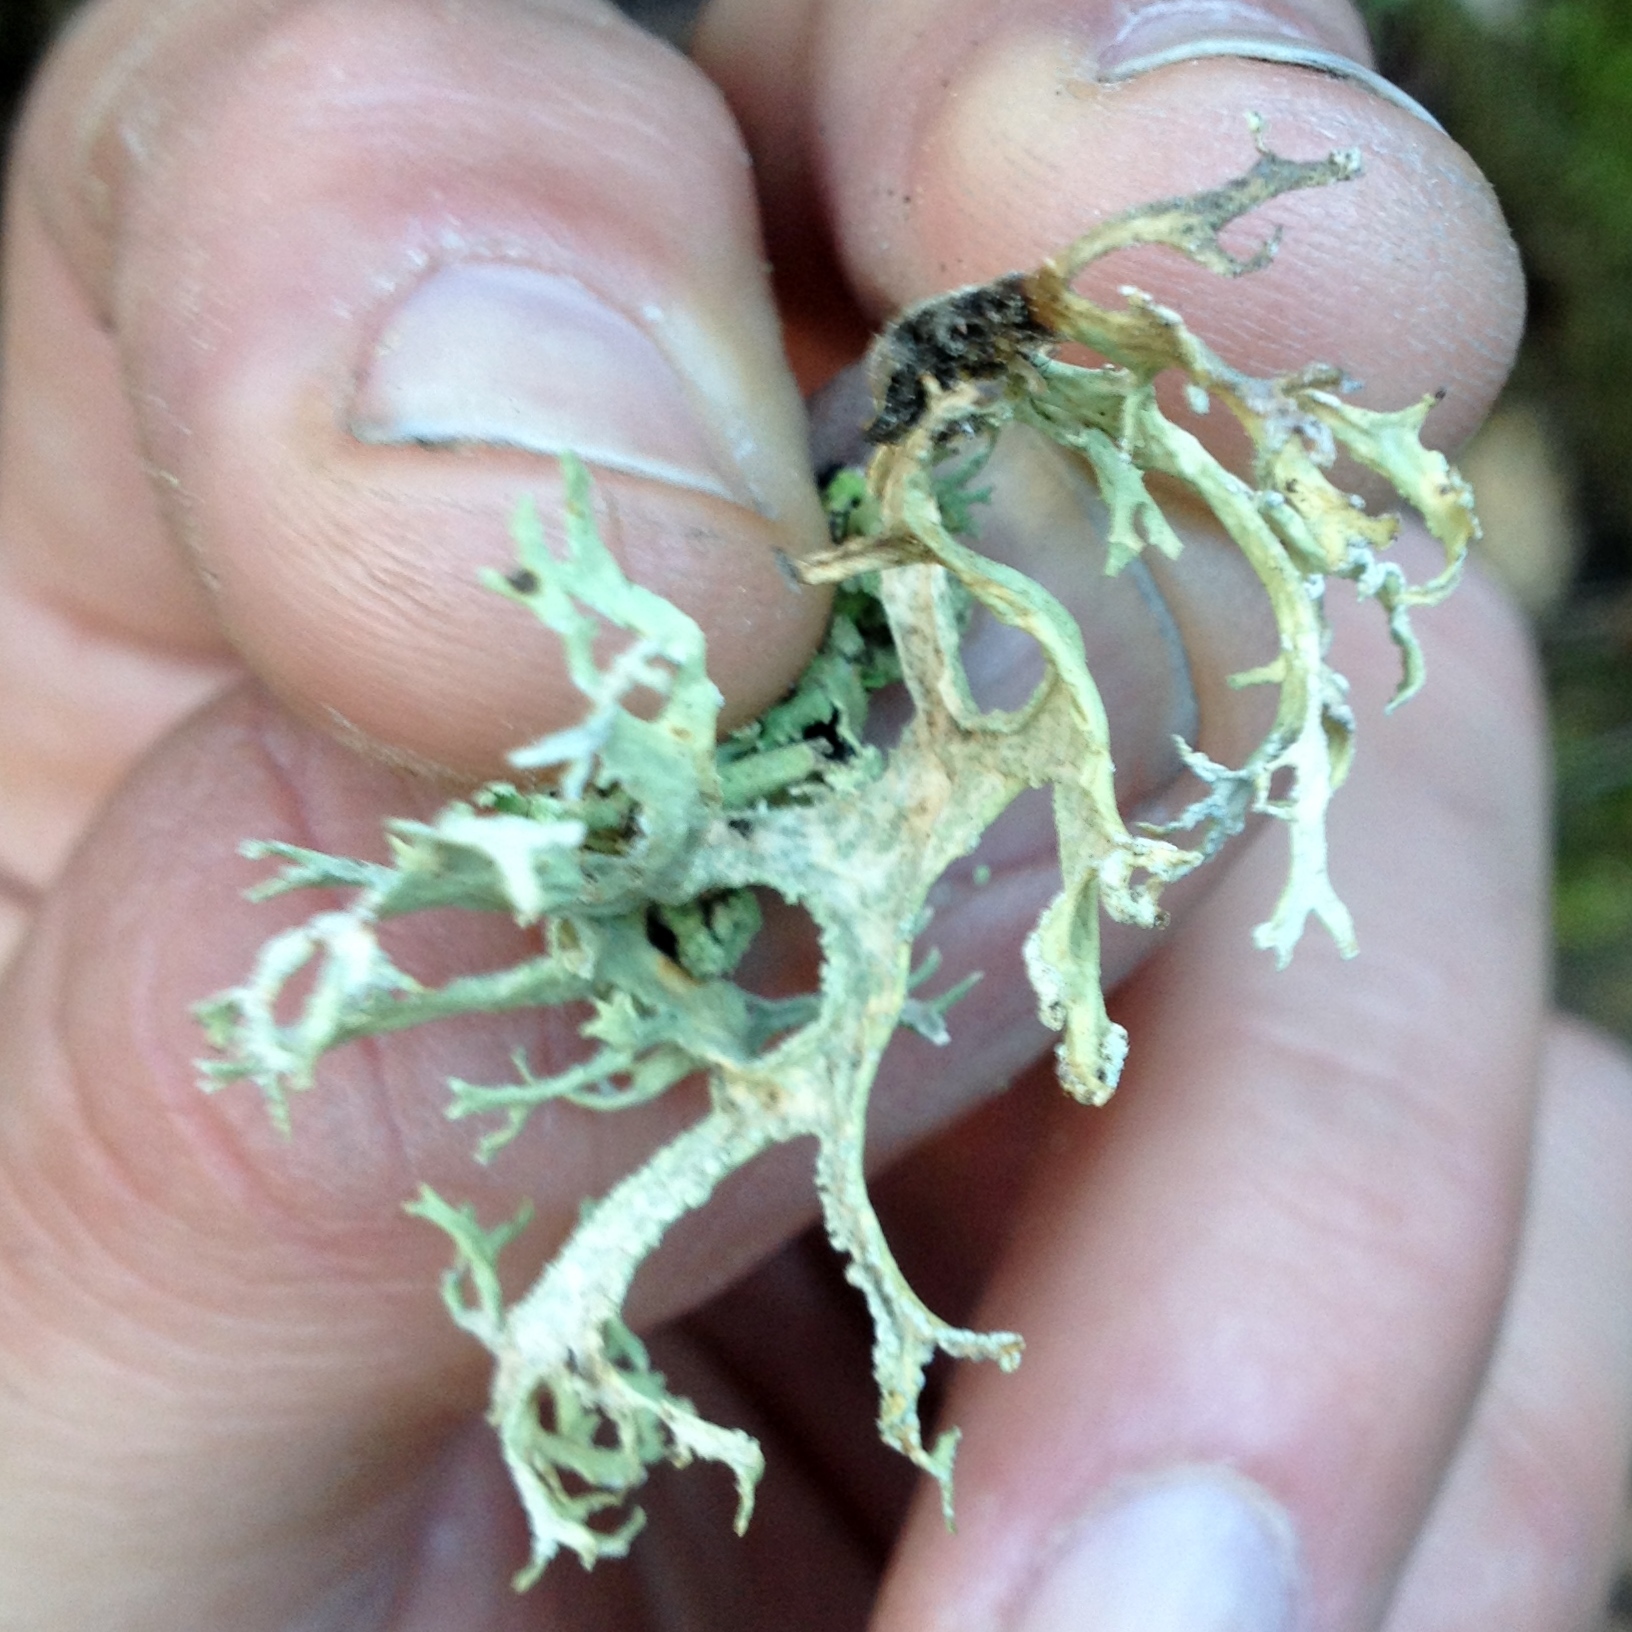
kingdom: Fungi
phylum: Ascomycota
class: Lecanoromycetes
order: Lecanorales
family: Parmeliaceae
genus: Evernia
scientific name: Evernia prunastri
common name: Oak moss
